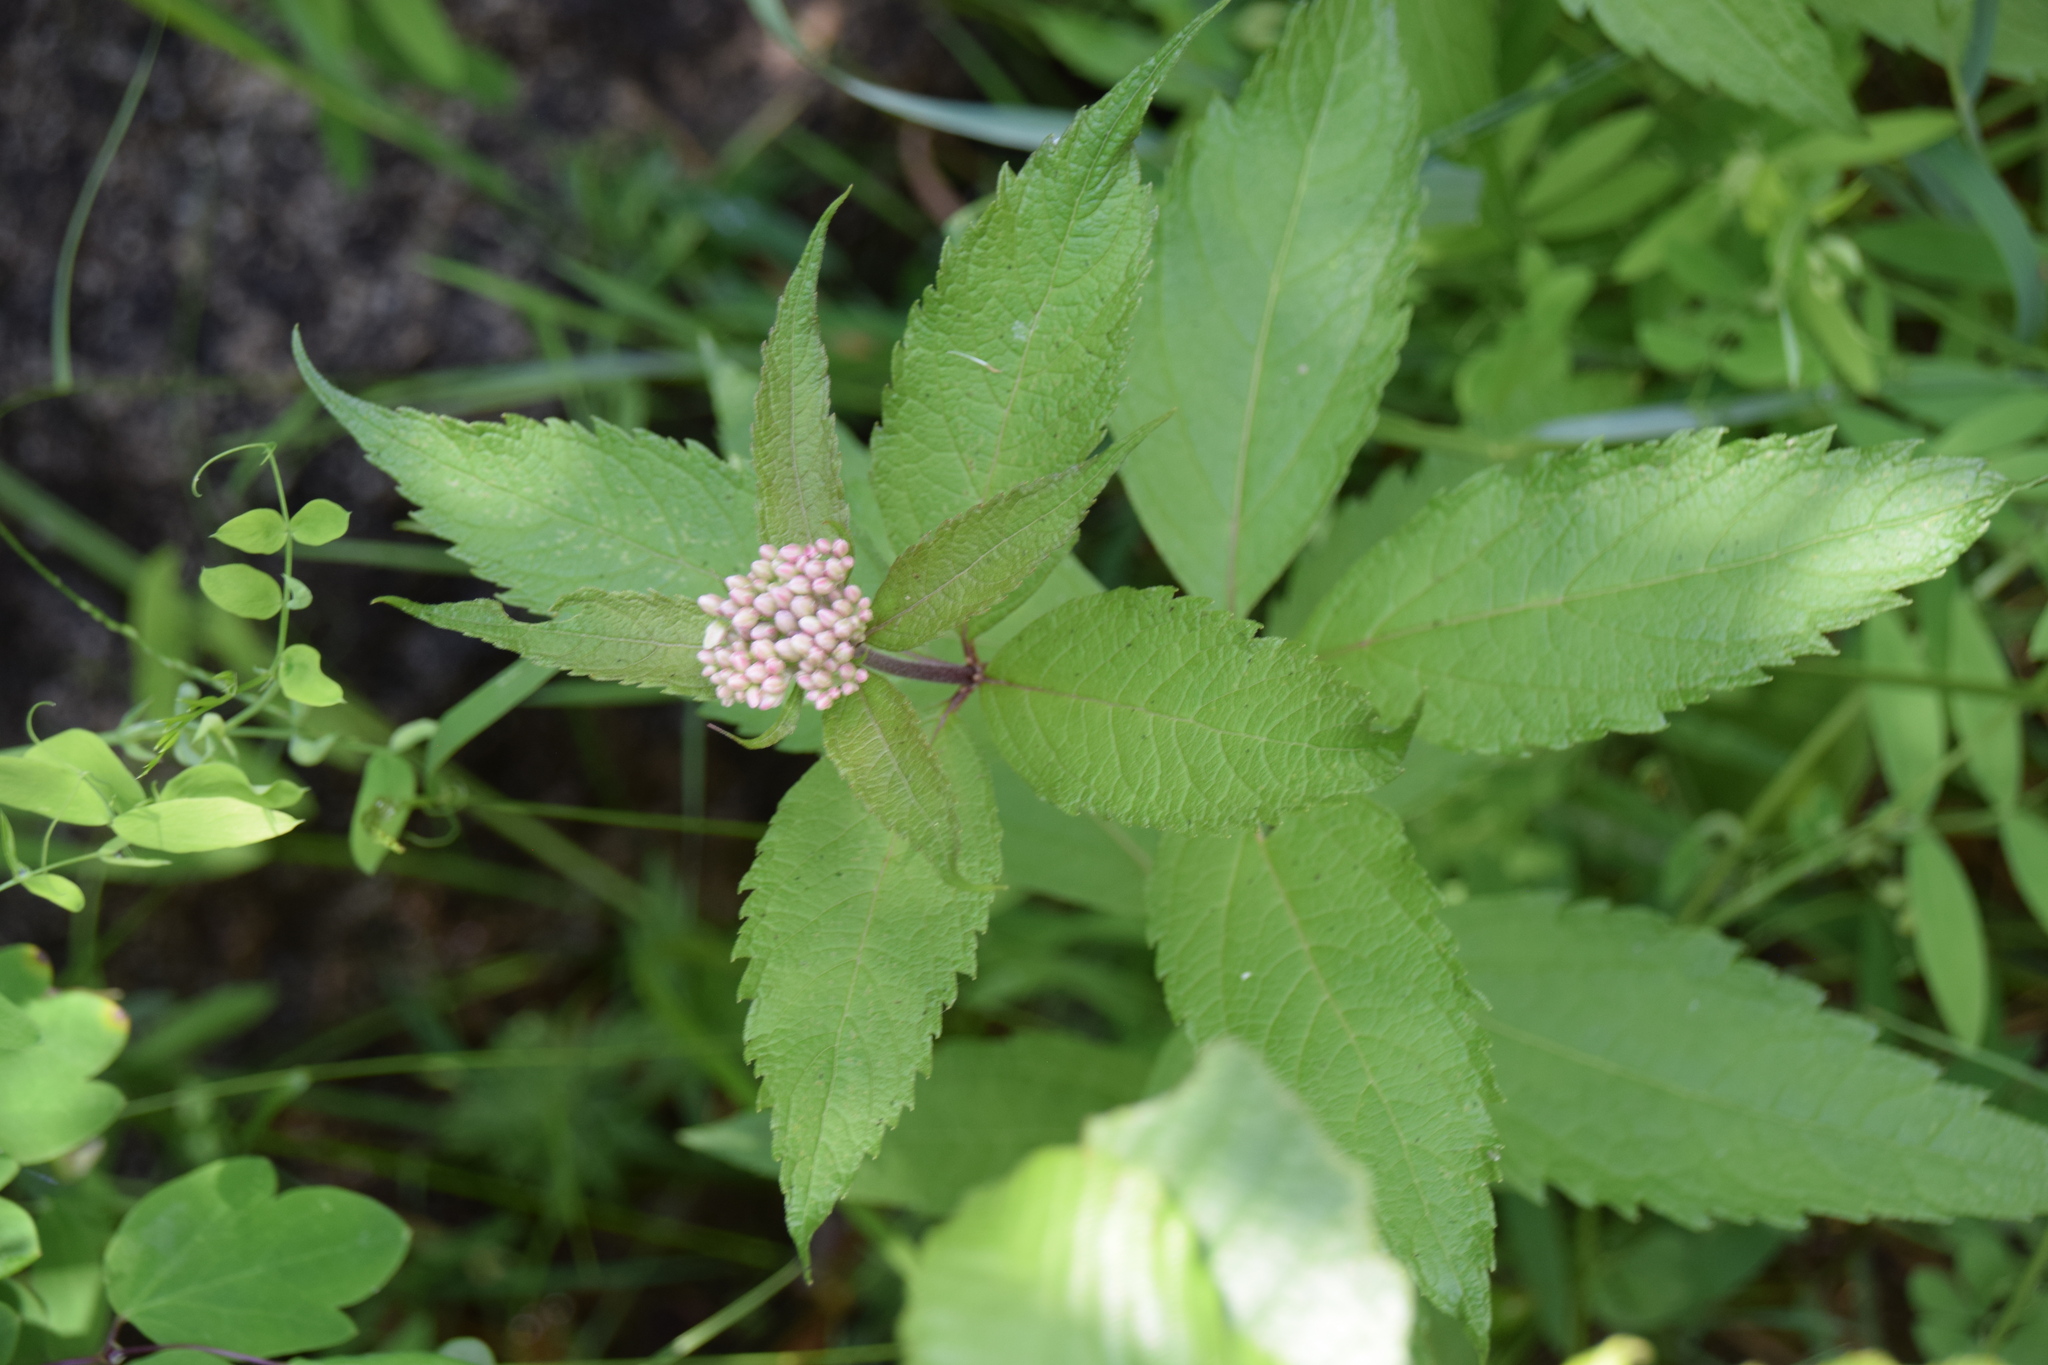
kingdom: Plantae
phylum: Tracheophyta
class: Magnoliopsida
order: Asterales
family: Asteraceae
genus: Eutrochium
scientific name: Eutrochium maculatum
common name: Spotted joe pye weed
